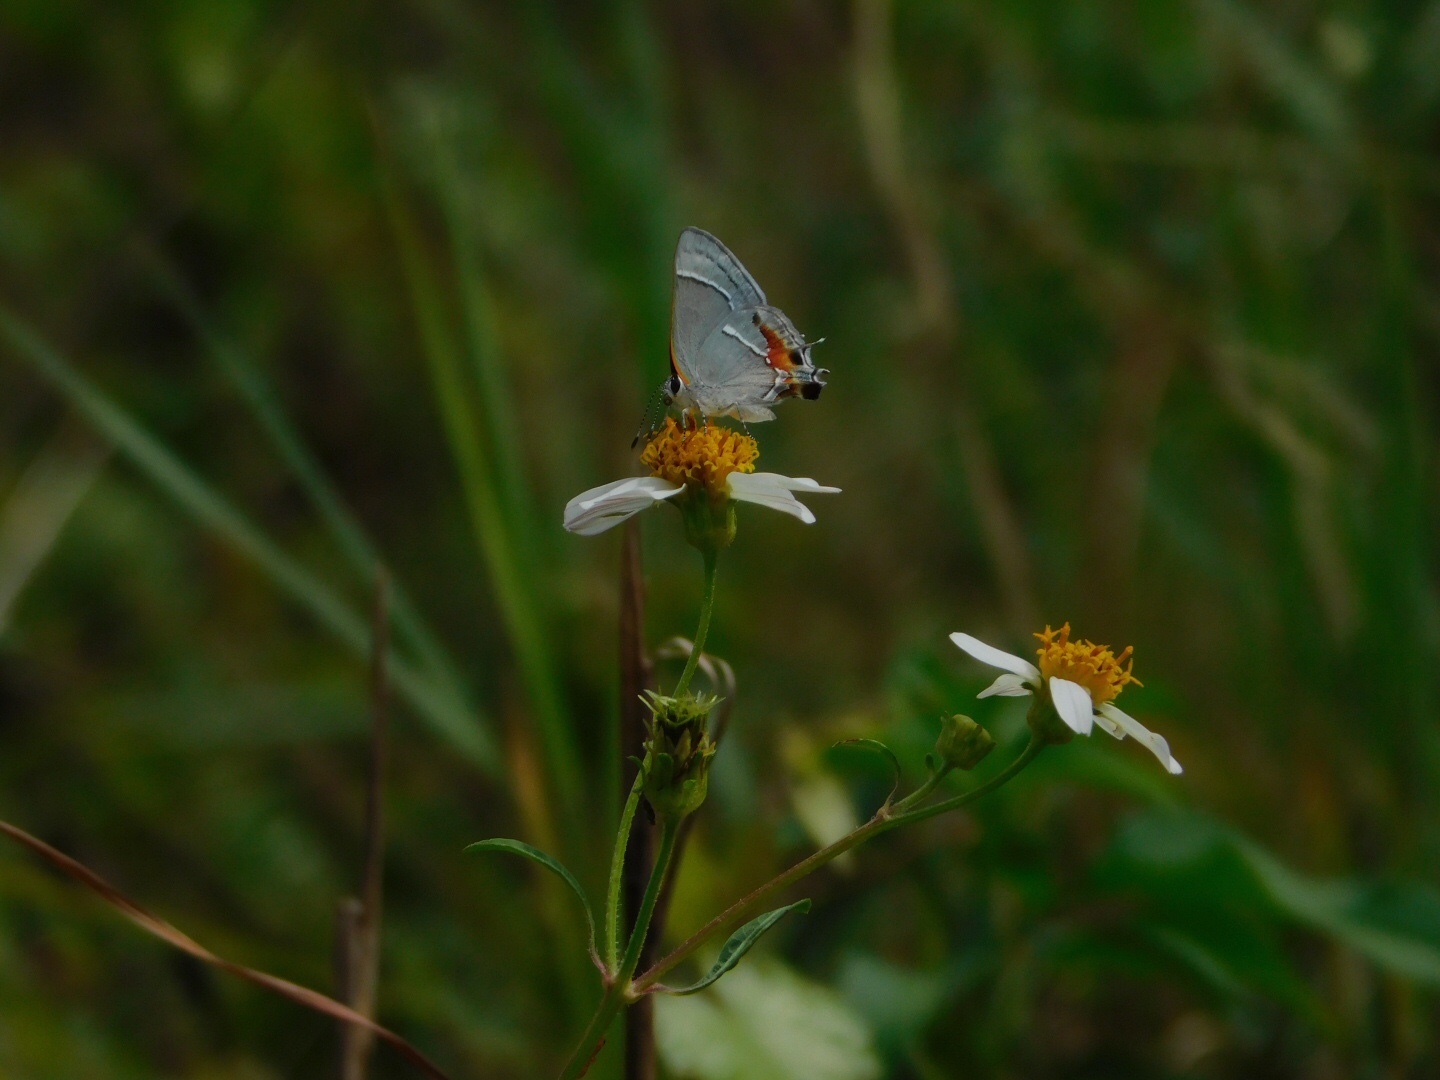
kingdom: Animalia
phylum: Arthropoda
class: Insecta
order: Lepidoptera
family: Lycaenidae
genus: Thecla
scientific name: Thecla martialis
